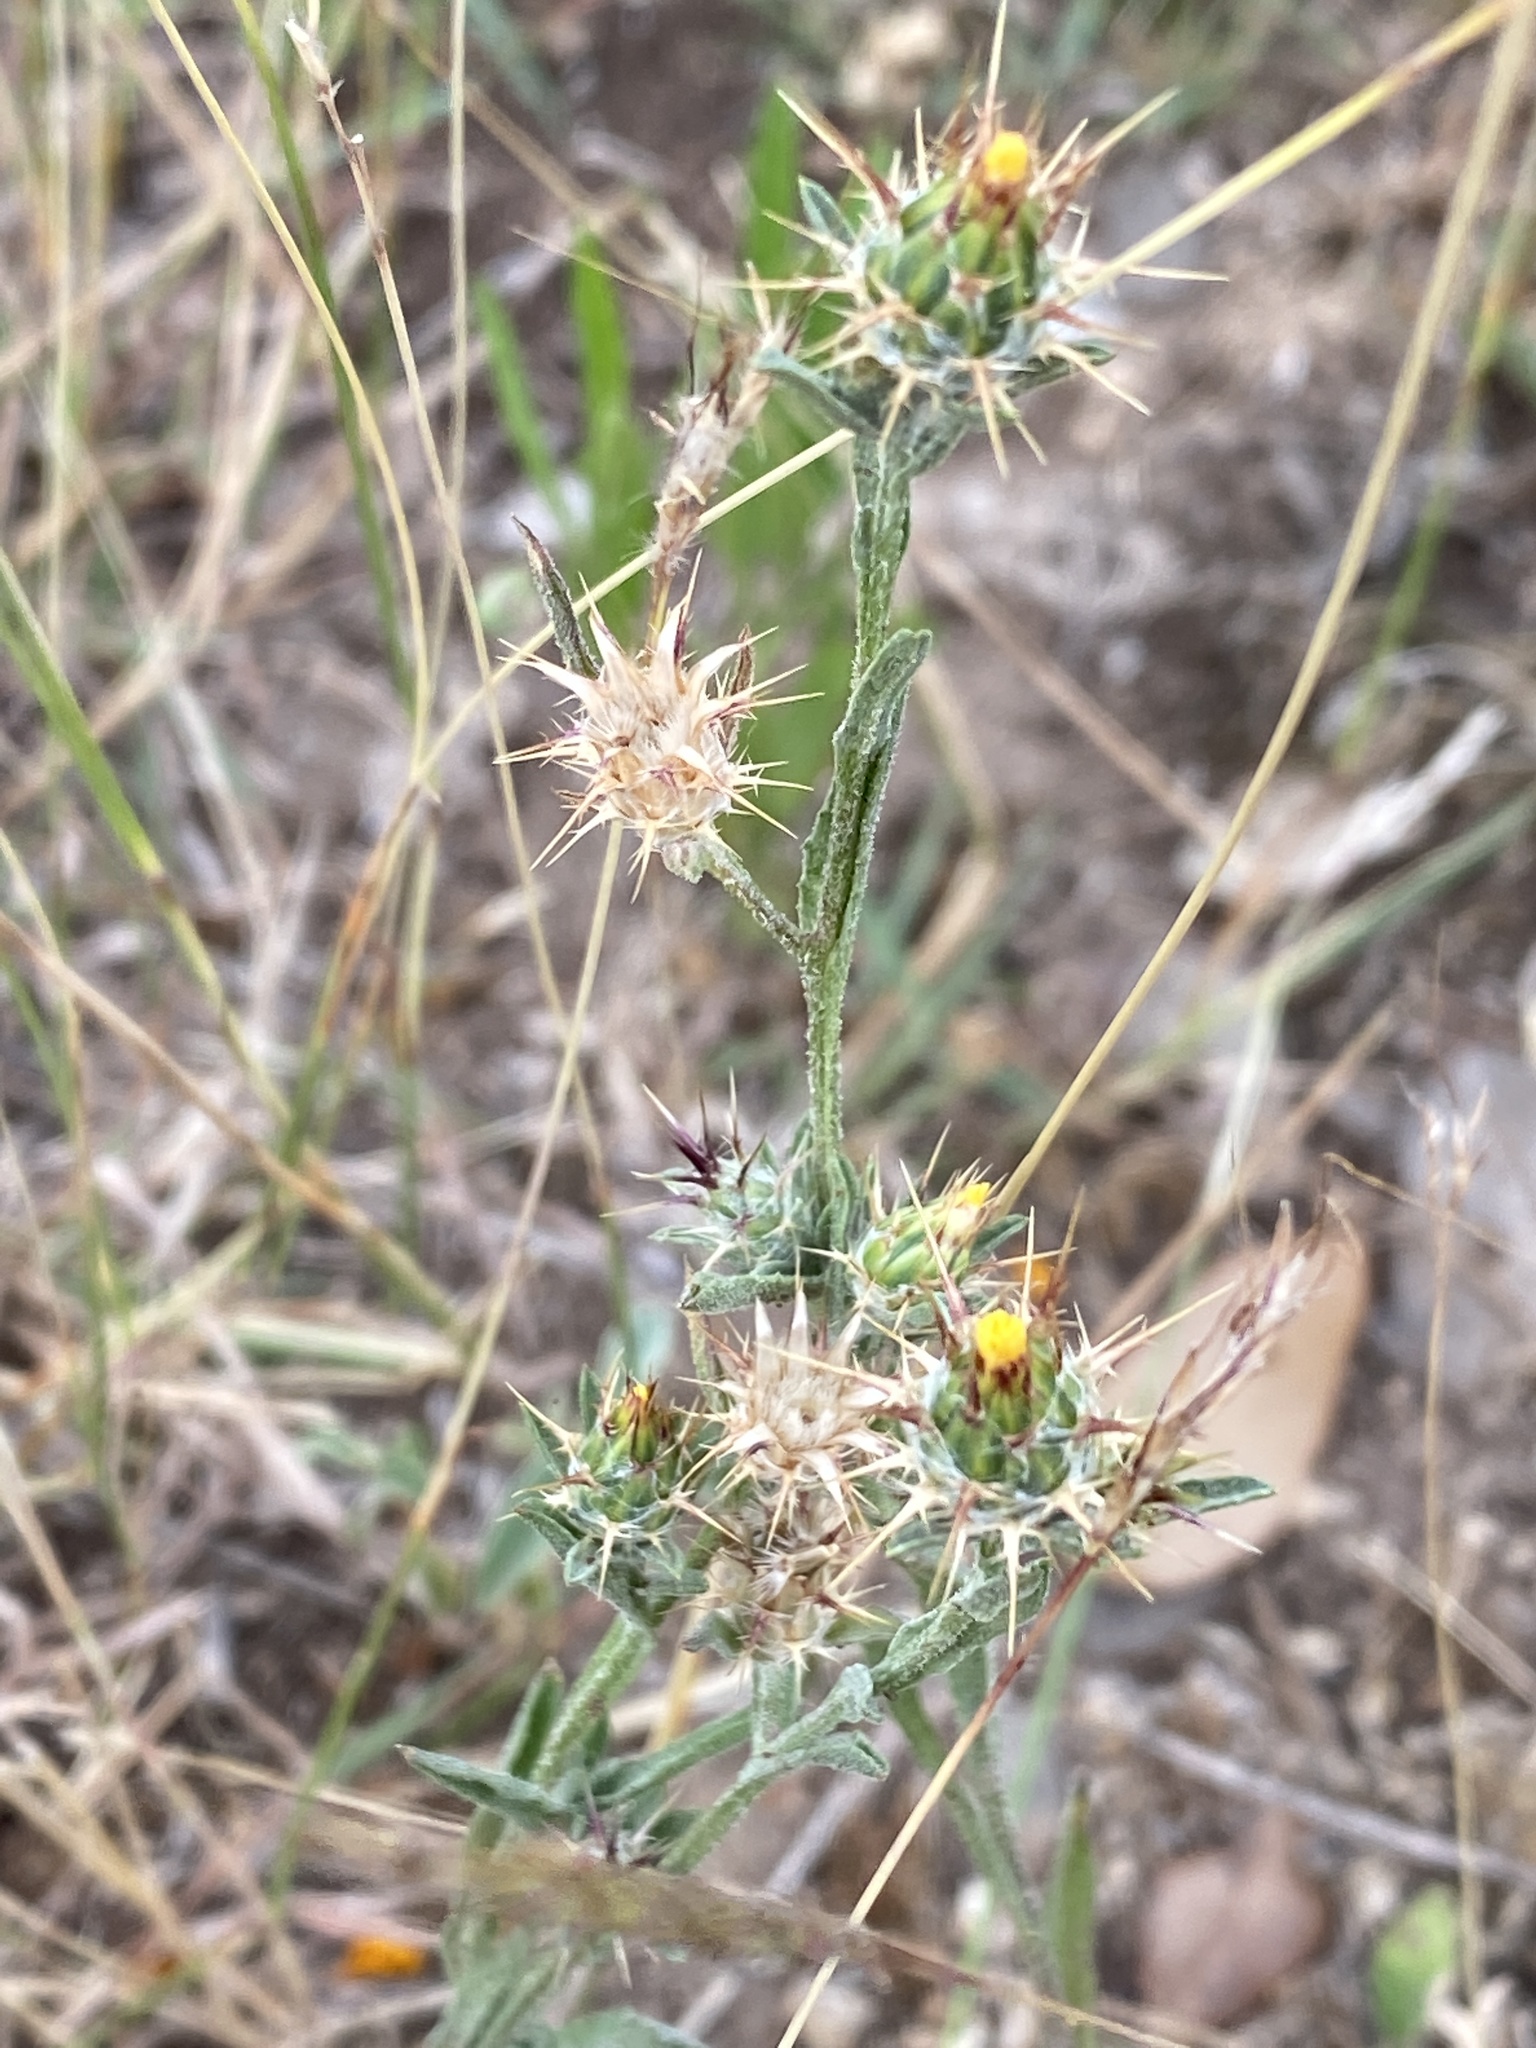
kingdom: Plantae
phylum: Tracheophyta
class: Magnoliopsida
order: Asterales
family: Asteraceae
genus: Centaurea
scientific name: Centaurea melitensis
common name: Maltese star-thistle
